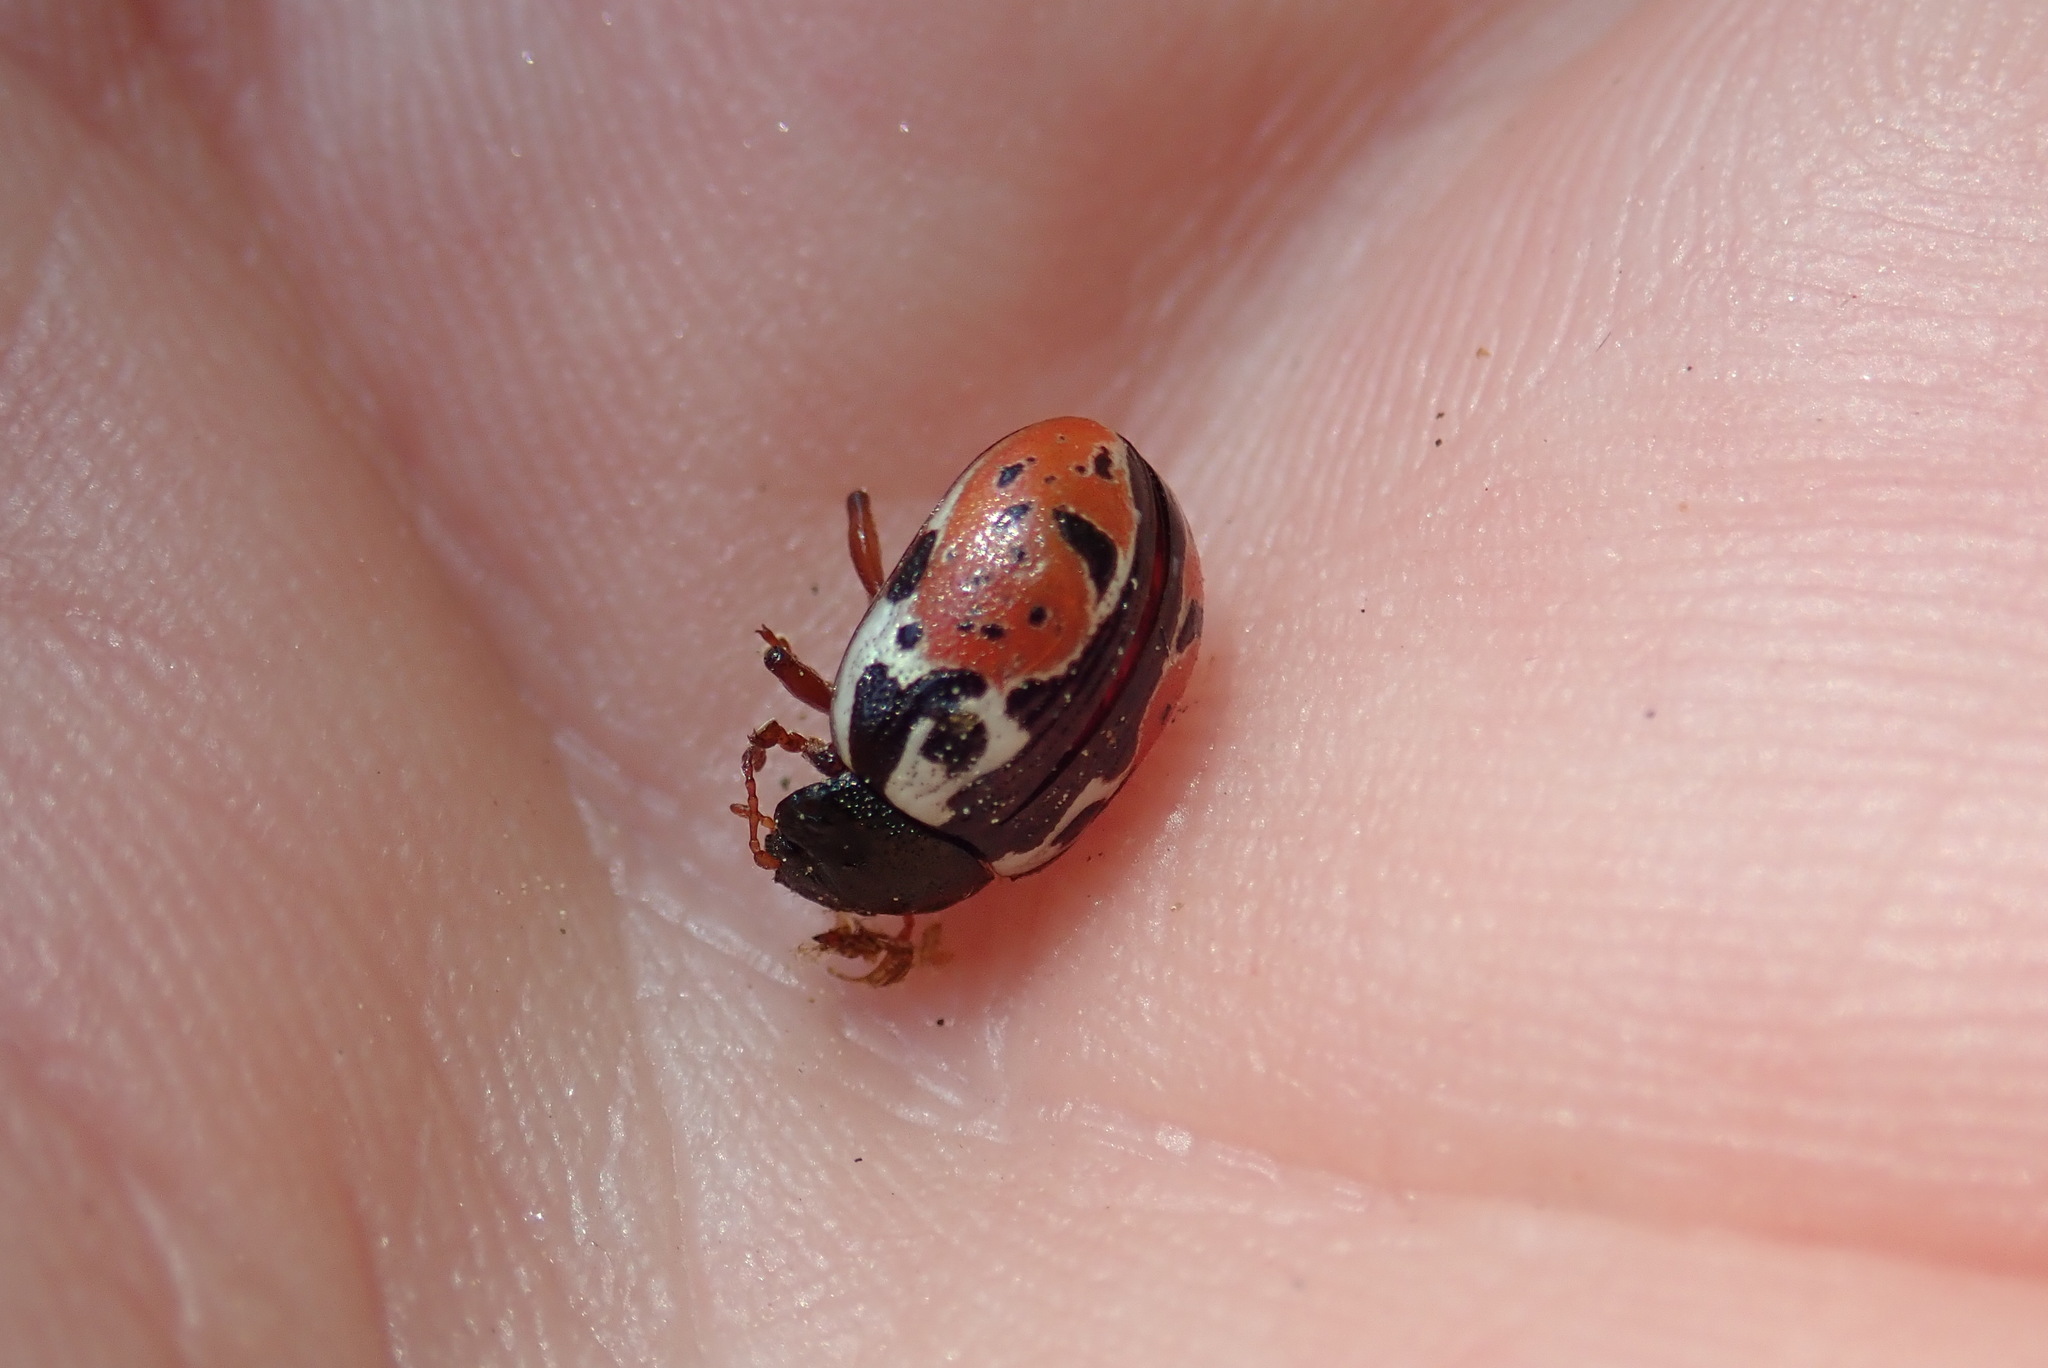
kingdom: Animalia
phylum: Arthropoda
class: Insecta
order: Coleoptera
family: Chrysomelidae
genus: Calligrapha
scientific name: Calligrapha rowena
